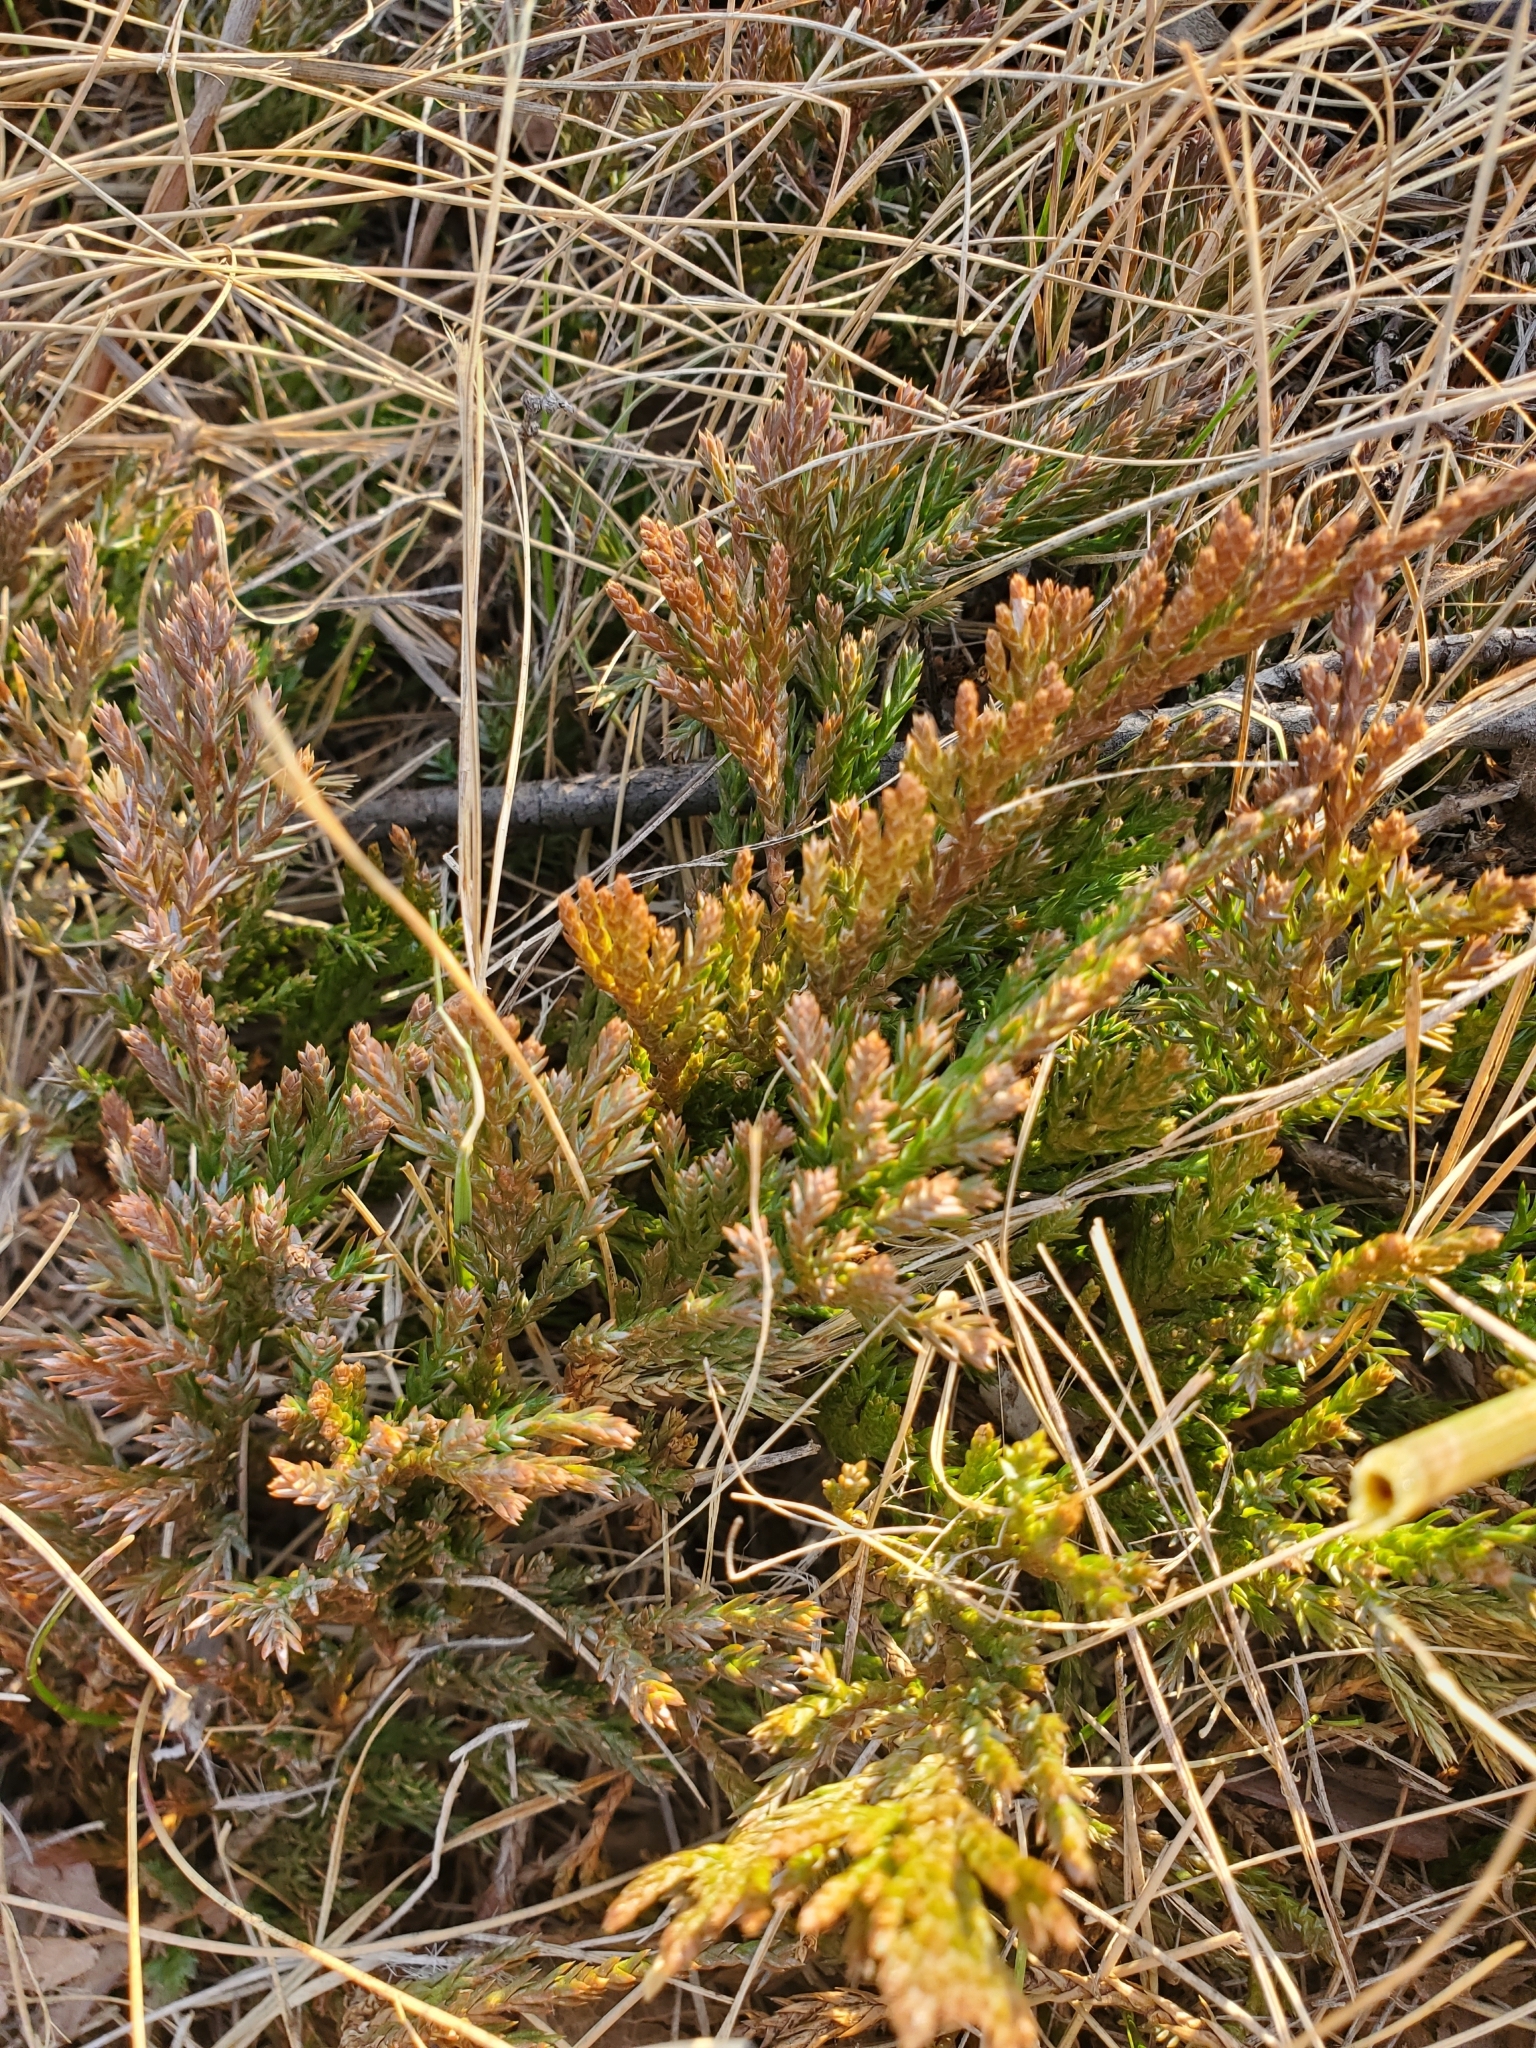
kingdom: Plantae
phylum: Tracheophyta
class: Pinopsida
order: Pinales
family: Cupressaceae
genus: Juniperus
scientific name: Juniperus horizontalis
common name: Creeping juniper
